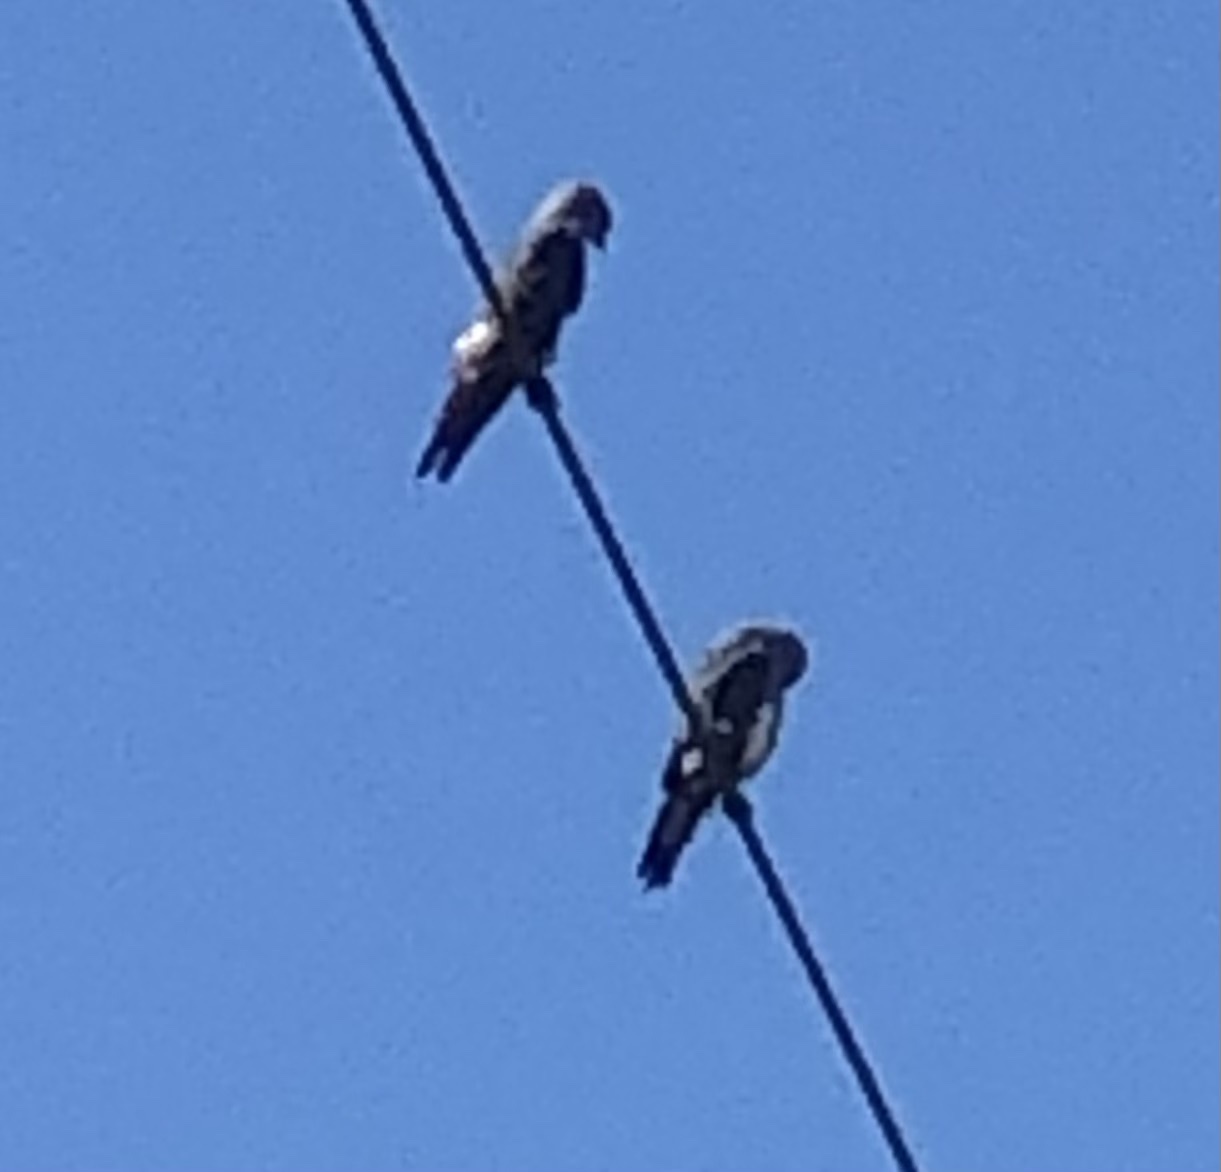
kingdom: Animalia
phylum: Chordata
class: Aves
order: Accipitriformes
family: Accipitridae
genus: Ictinia
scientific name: Ictinia mississippiensis
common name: Mississippi kite
